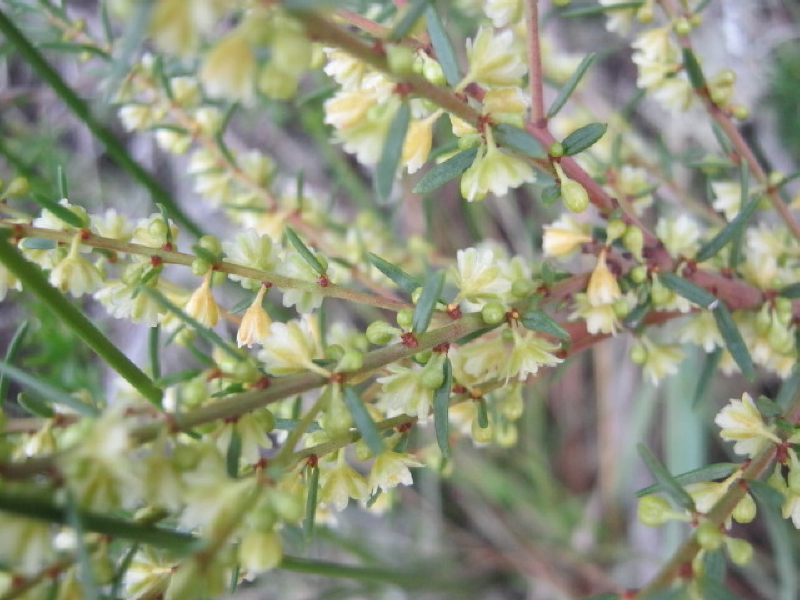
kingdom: Plantae
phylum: Tracheophyta
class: Magnoliopsida
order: Malpighiales
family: Peraceae
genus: Clutia
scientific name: Clutia ericoides
